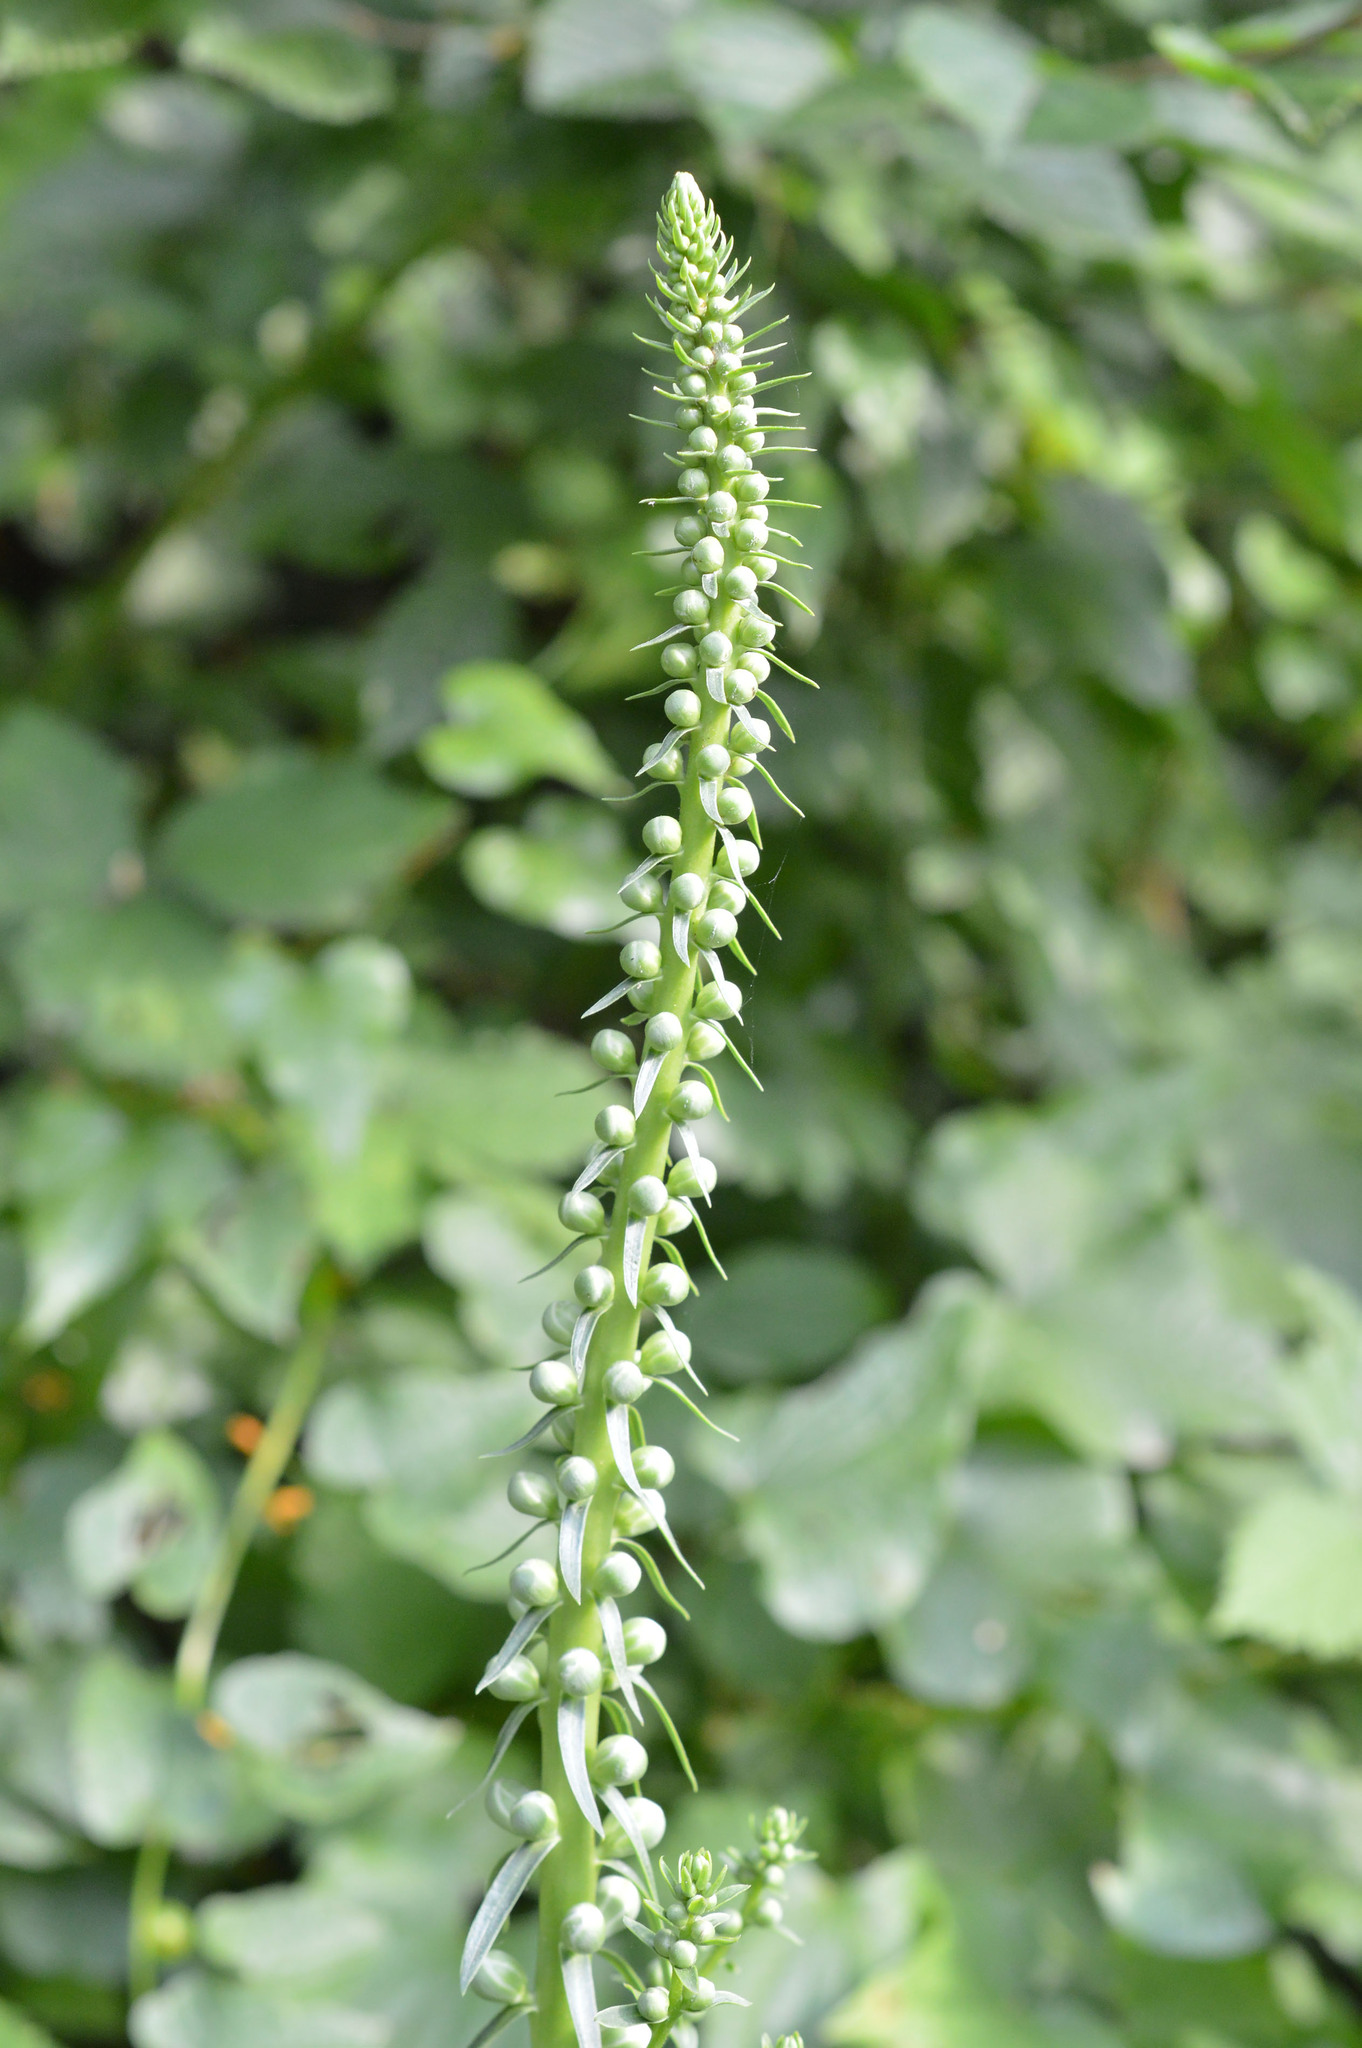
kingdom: Plantae
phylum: Tracheophyta
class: Magnoliopsida
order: Lamiales
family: Plantaginaceae
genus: Digitalis
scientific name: Digitalis ferruginea
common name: Rusty foxglove
